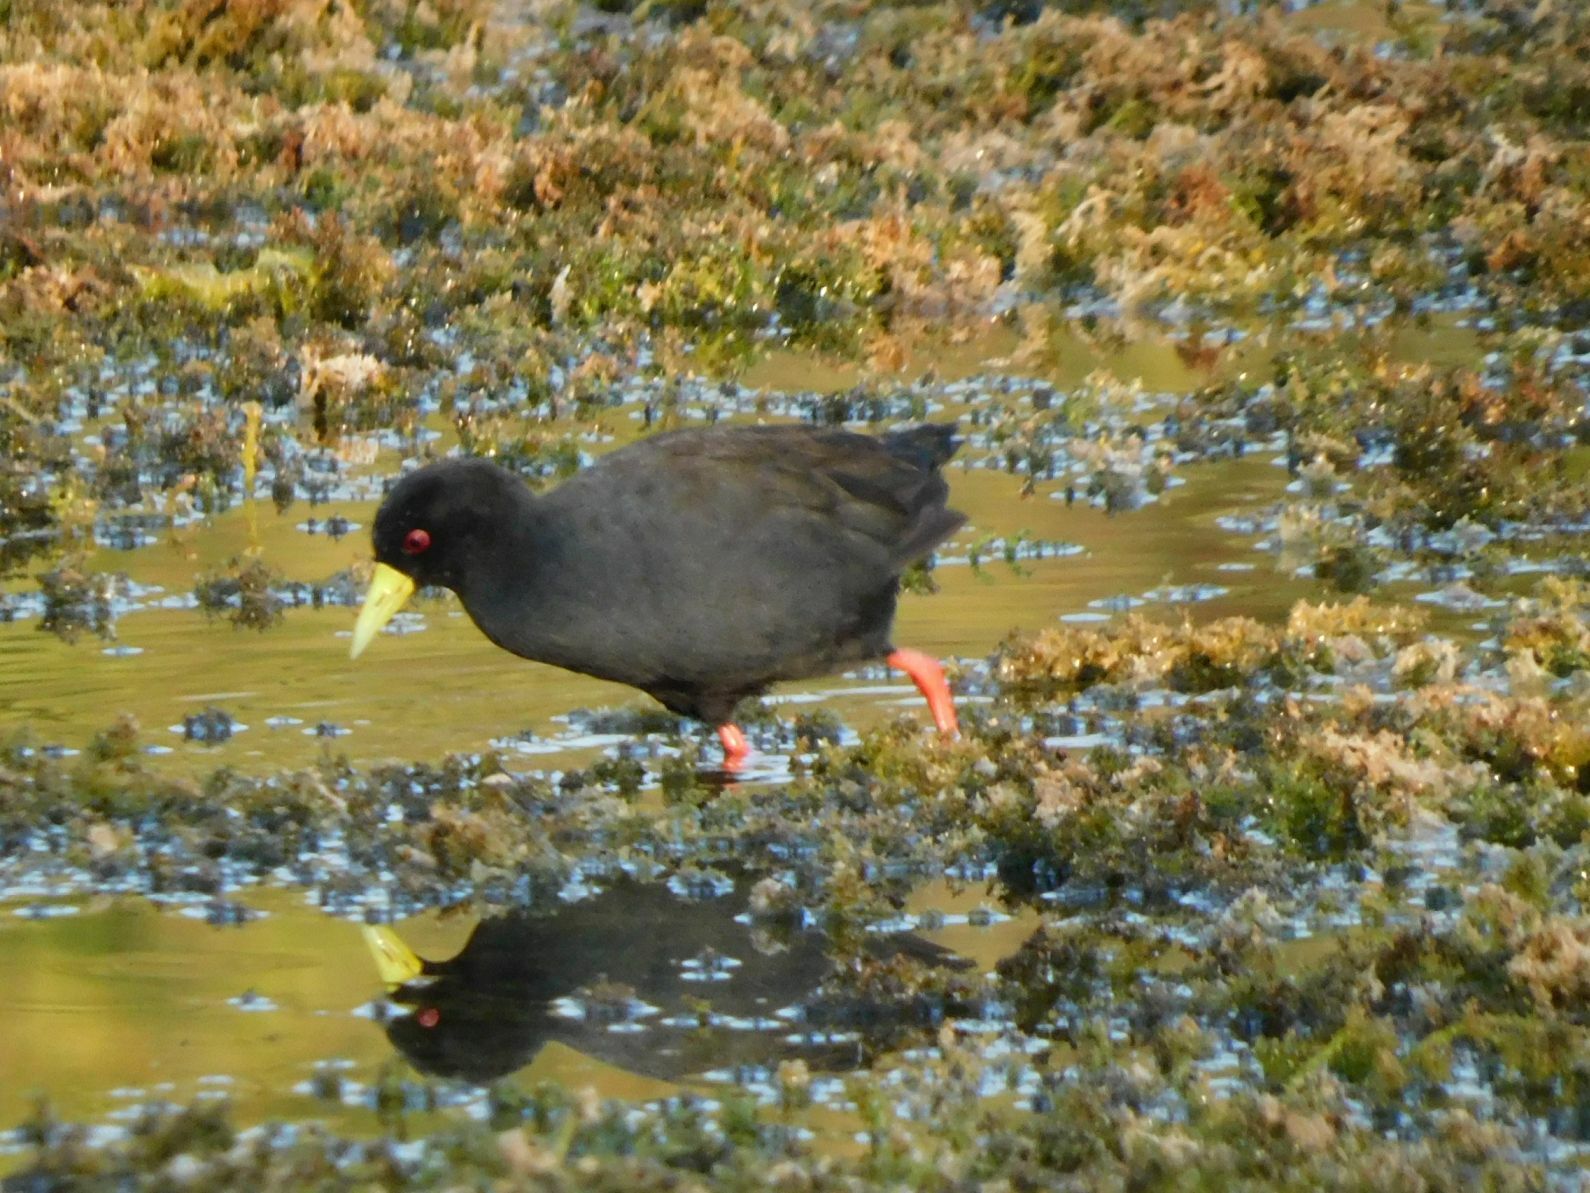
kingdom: Animalia
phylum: Chordata
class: Aves
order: Gruiformes
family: Rallidae
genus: Amaurornis
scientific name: Amaurornis flavirostra
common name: Black crake
